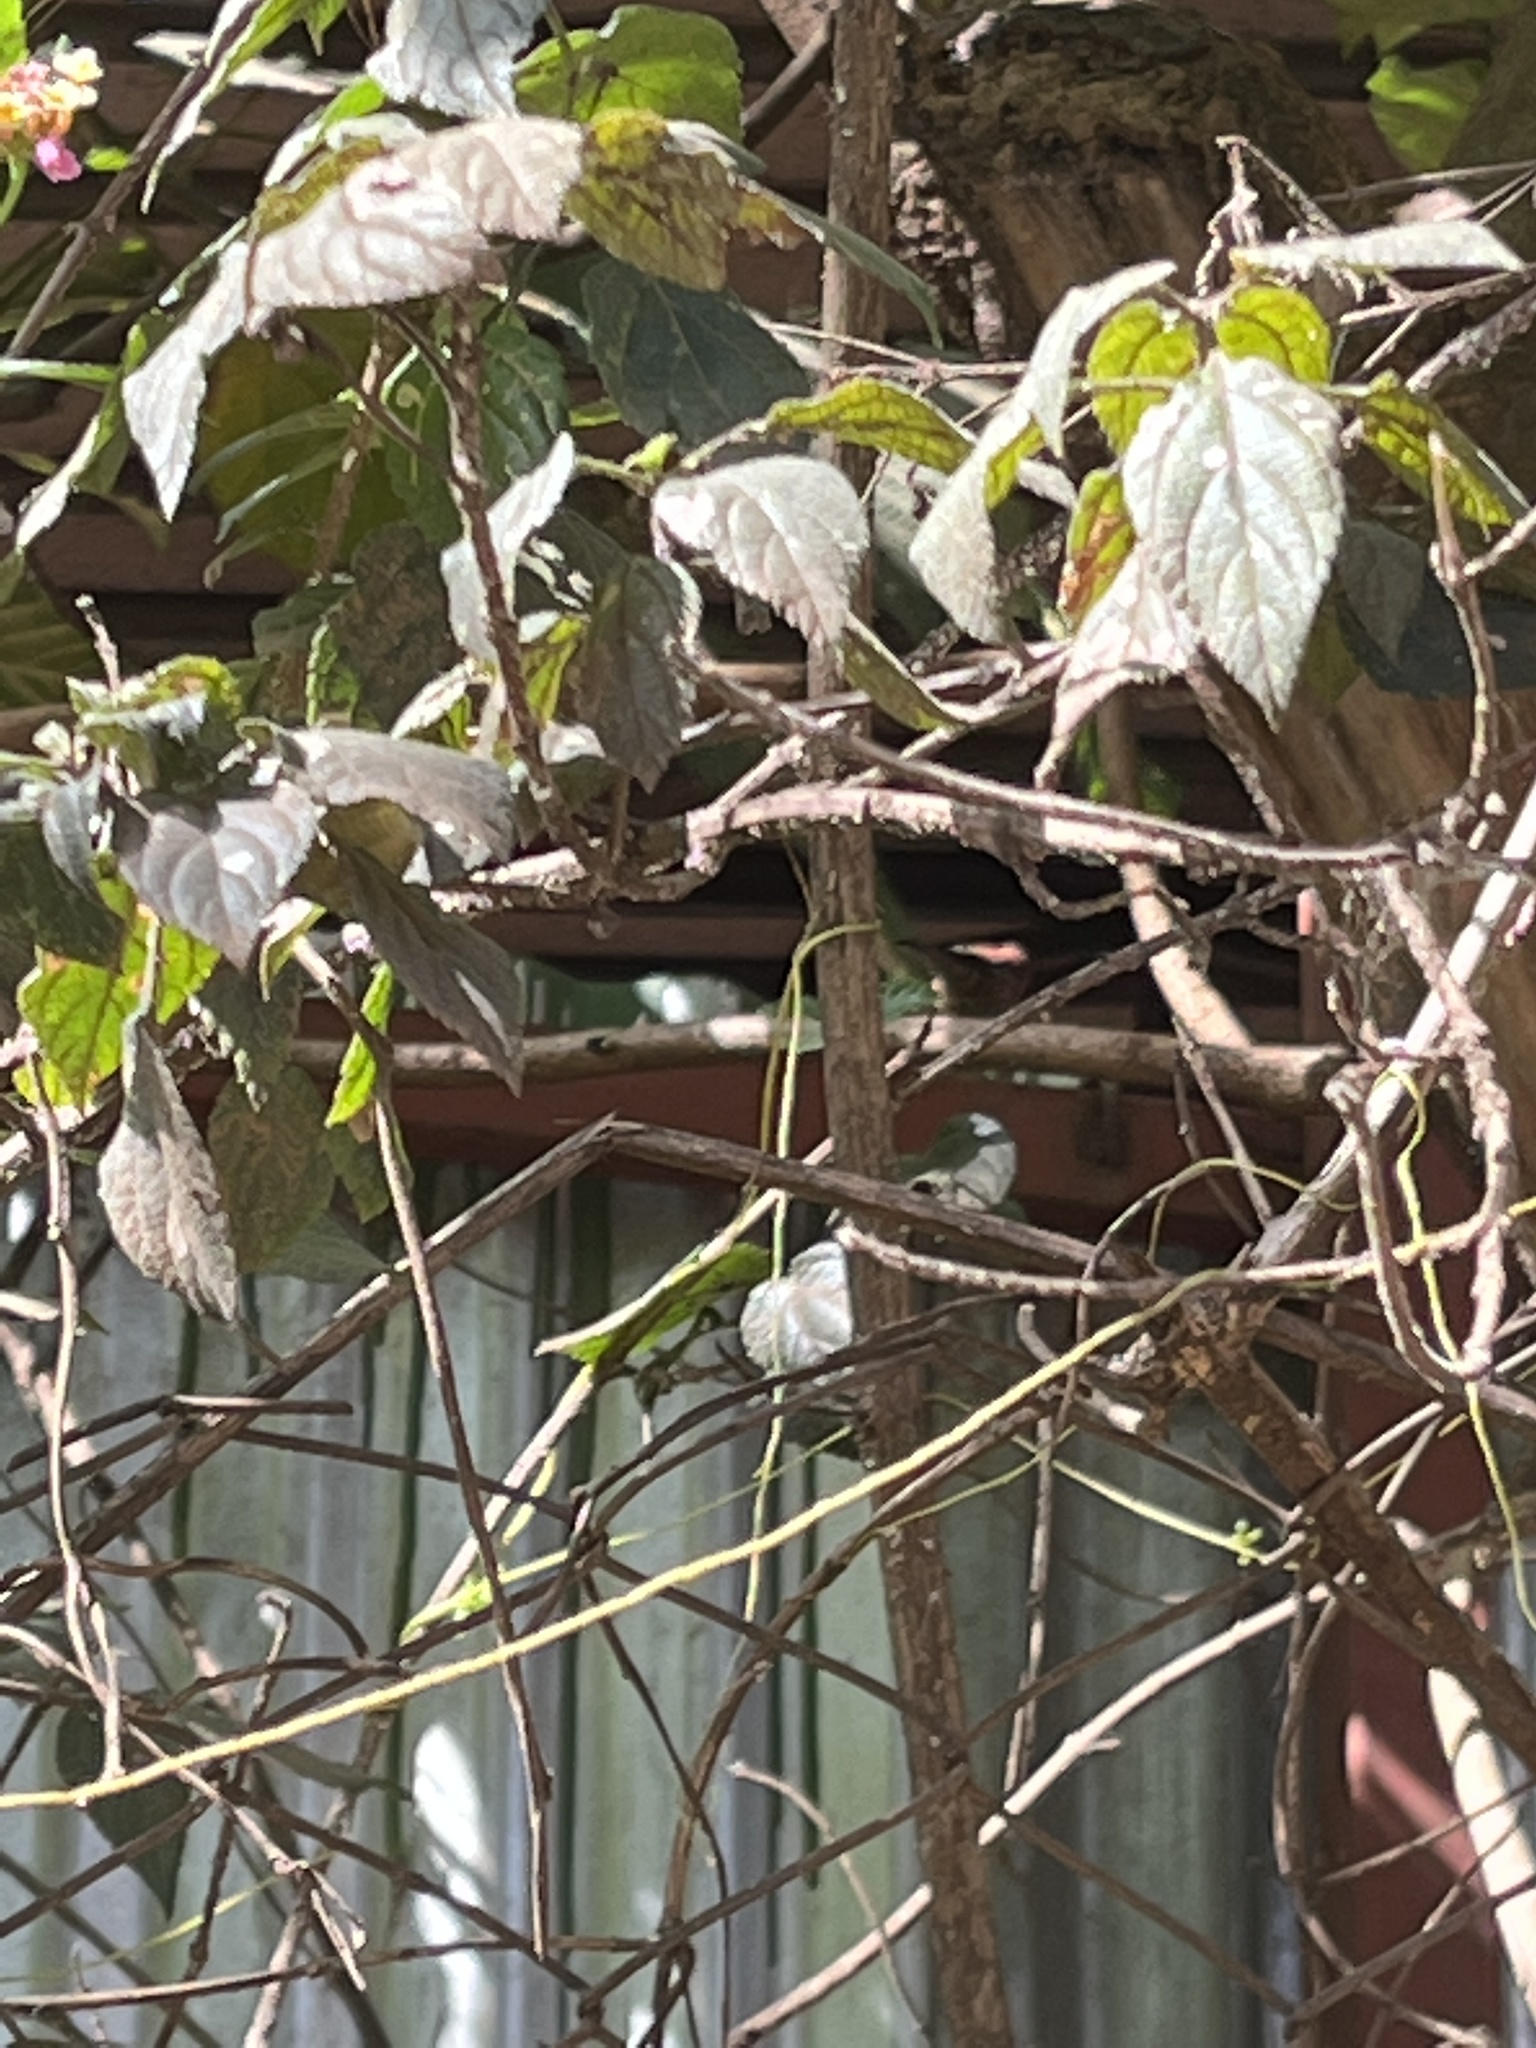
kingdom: Animalia
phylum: Chordata
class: Aves
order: Passeriformes
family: Estrildidae
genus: Lagonosticta
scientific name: Lagonosticta senegala
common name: Red-billed firefinch
